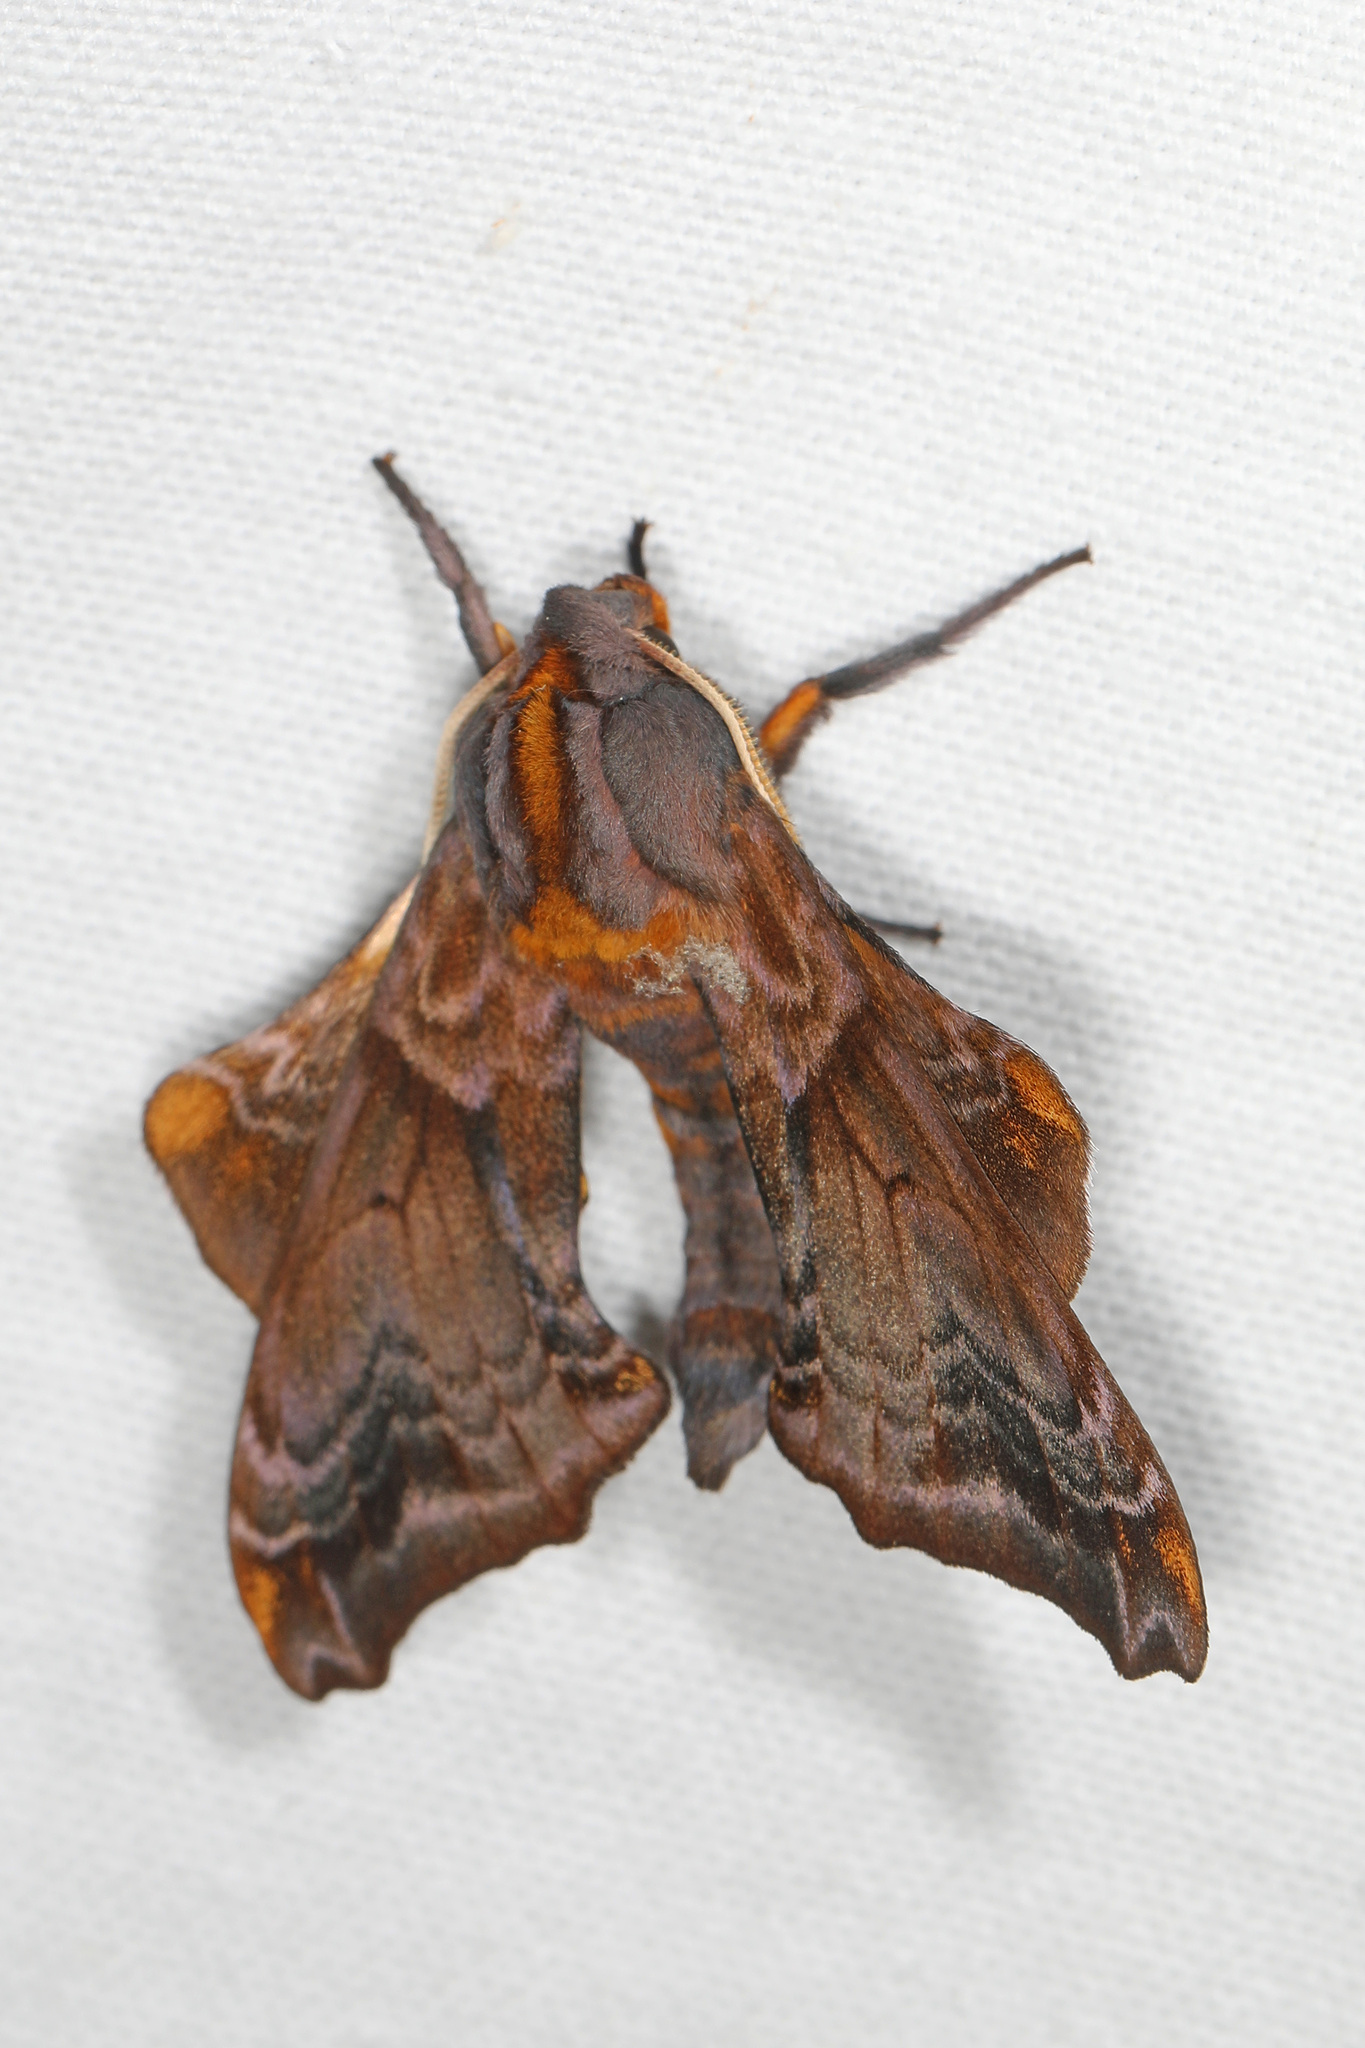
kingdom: Animalia
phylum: Arthropoda
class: Insecta
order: Lepidoptera
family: Sphingidae
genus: Paonias
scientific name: Paonias myops
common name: Small-eyed sphinx
